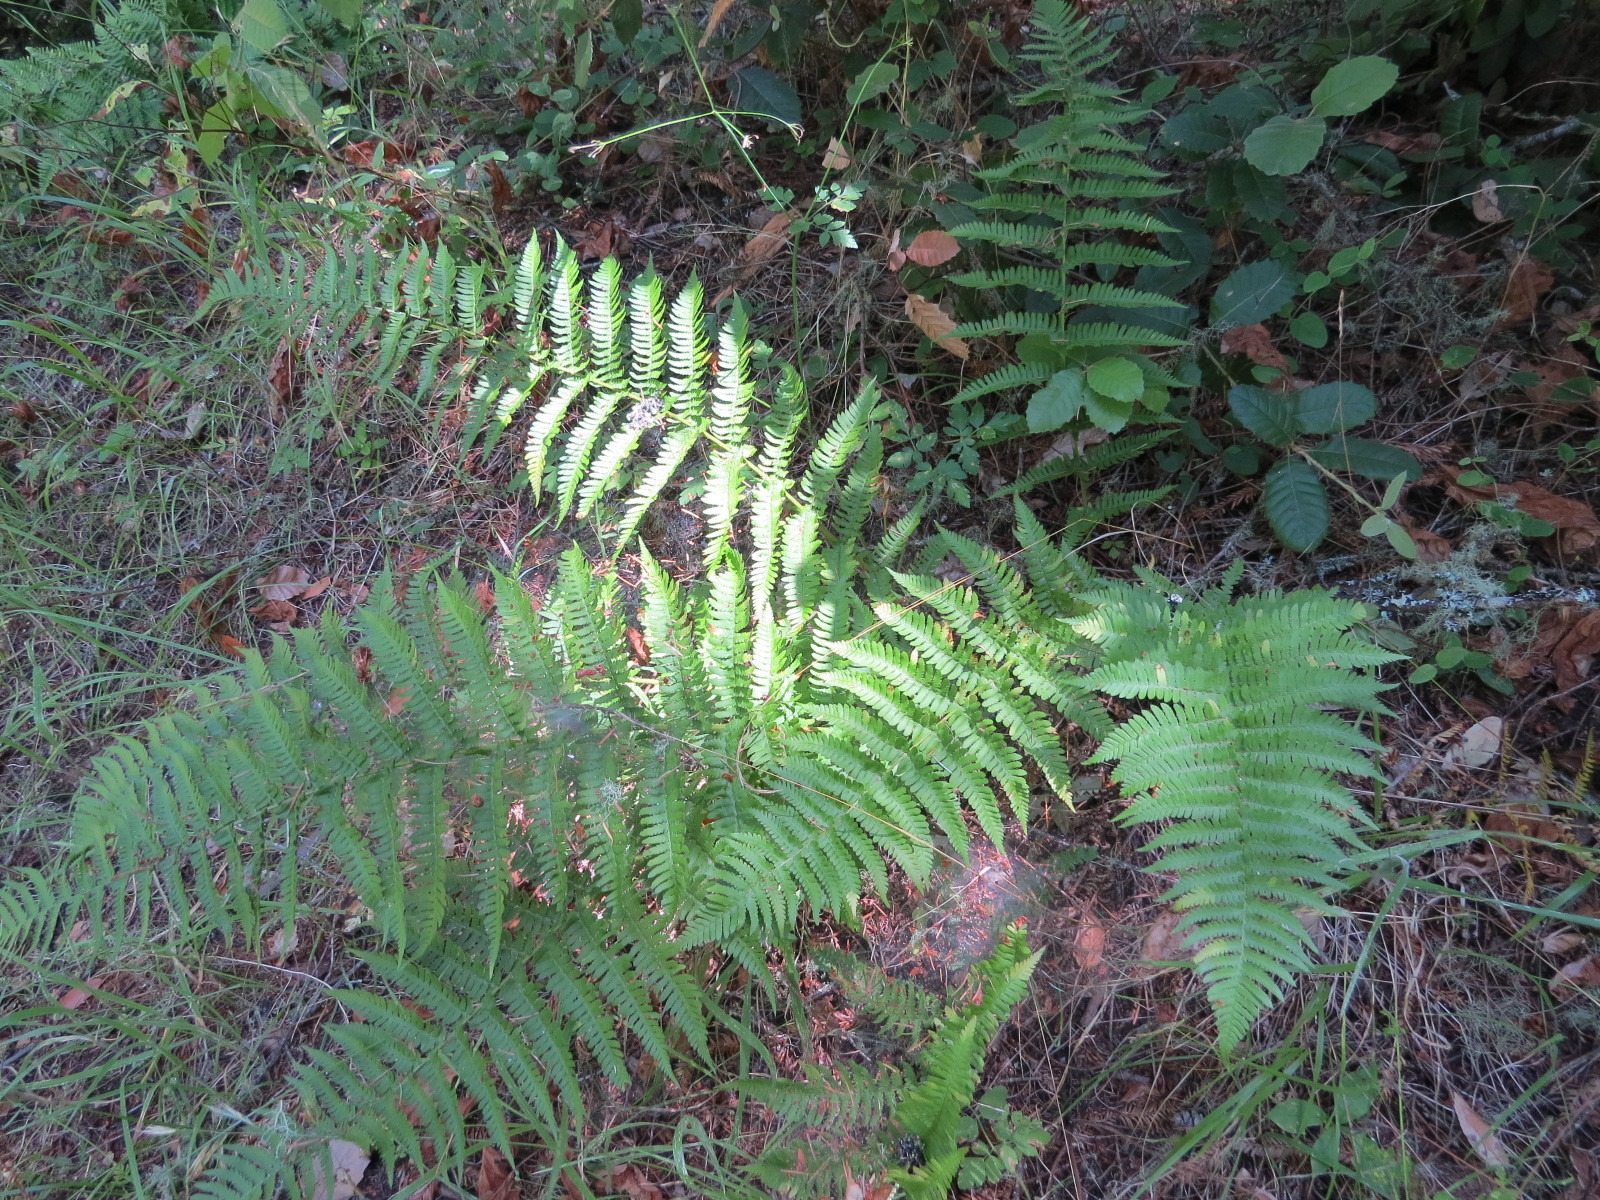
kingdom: Plantae
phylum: Tracheophyta
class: Polypodiopsida
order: Polypodiales
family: Dryopteridaceae
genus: Dryopteris
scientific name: Dryopteris arguta
